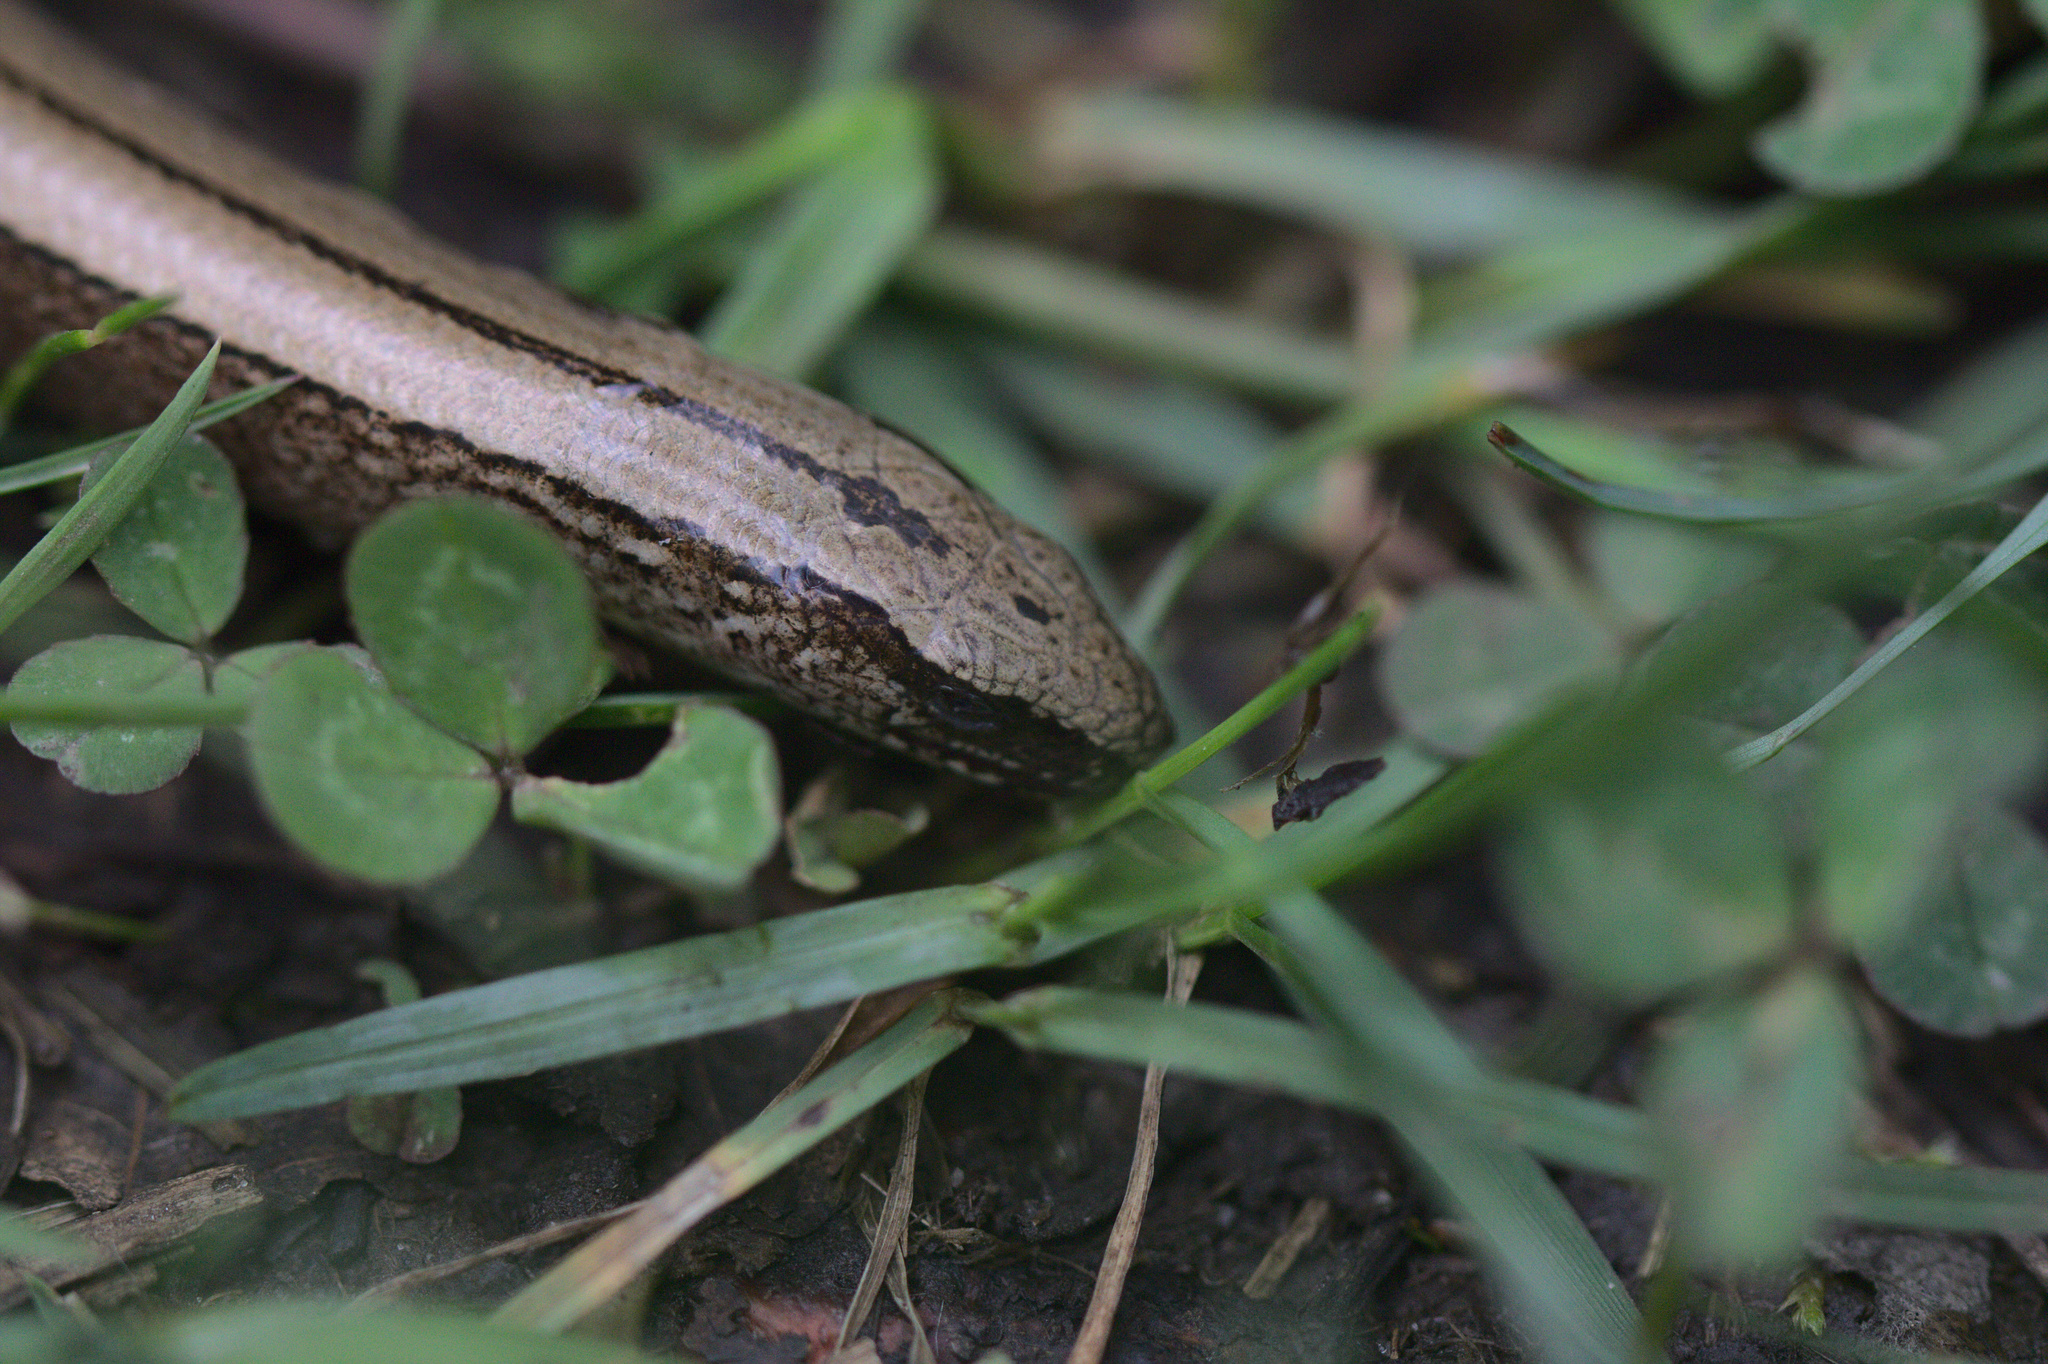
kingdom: Animalia
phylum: Chordata
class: Squamata
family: Anguidae
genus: Anguis
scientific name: Anguis fragilis
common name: Slow worm
